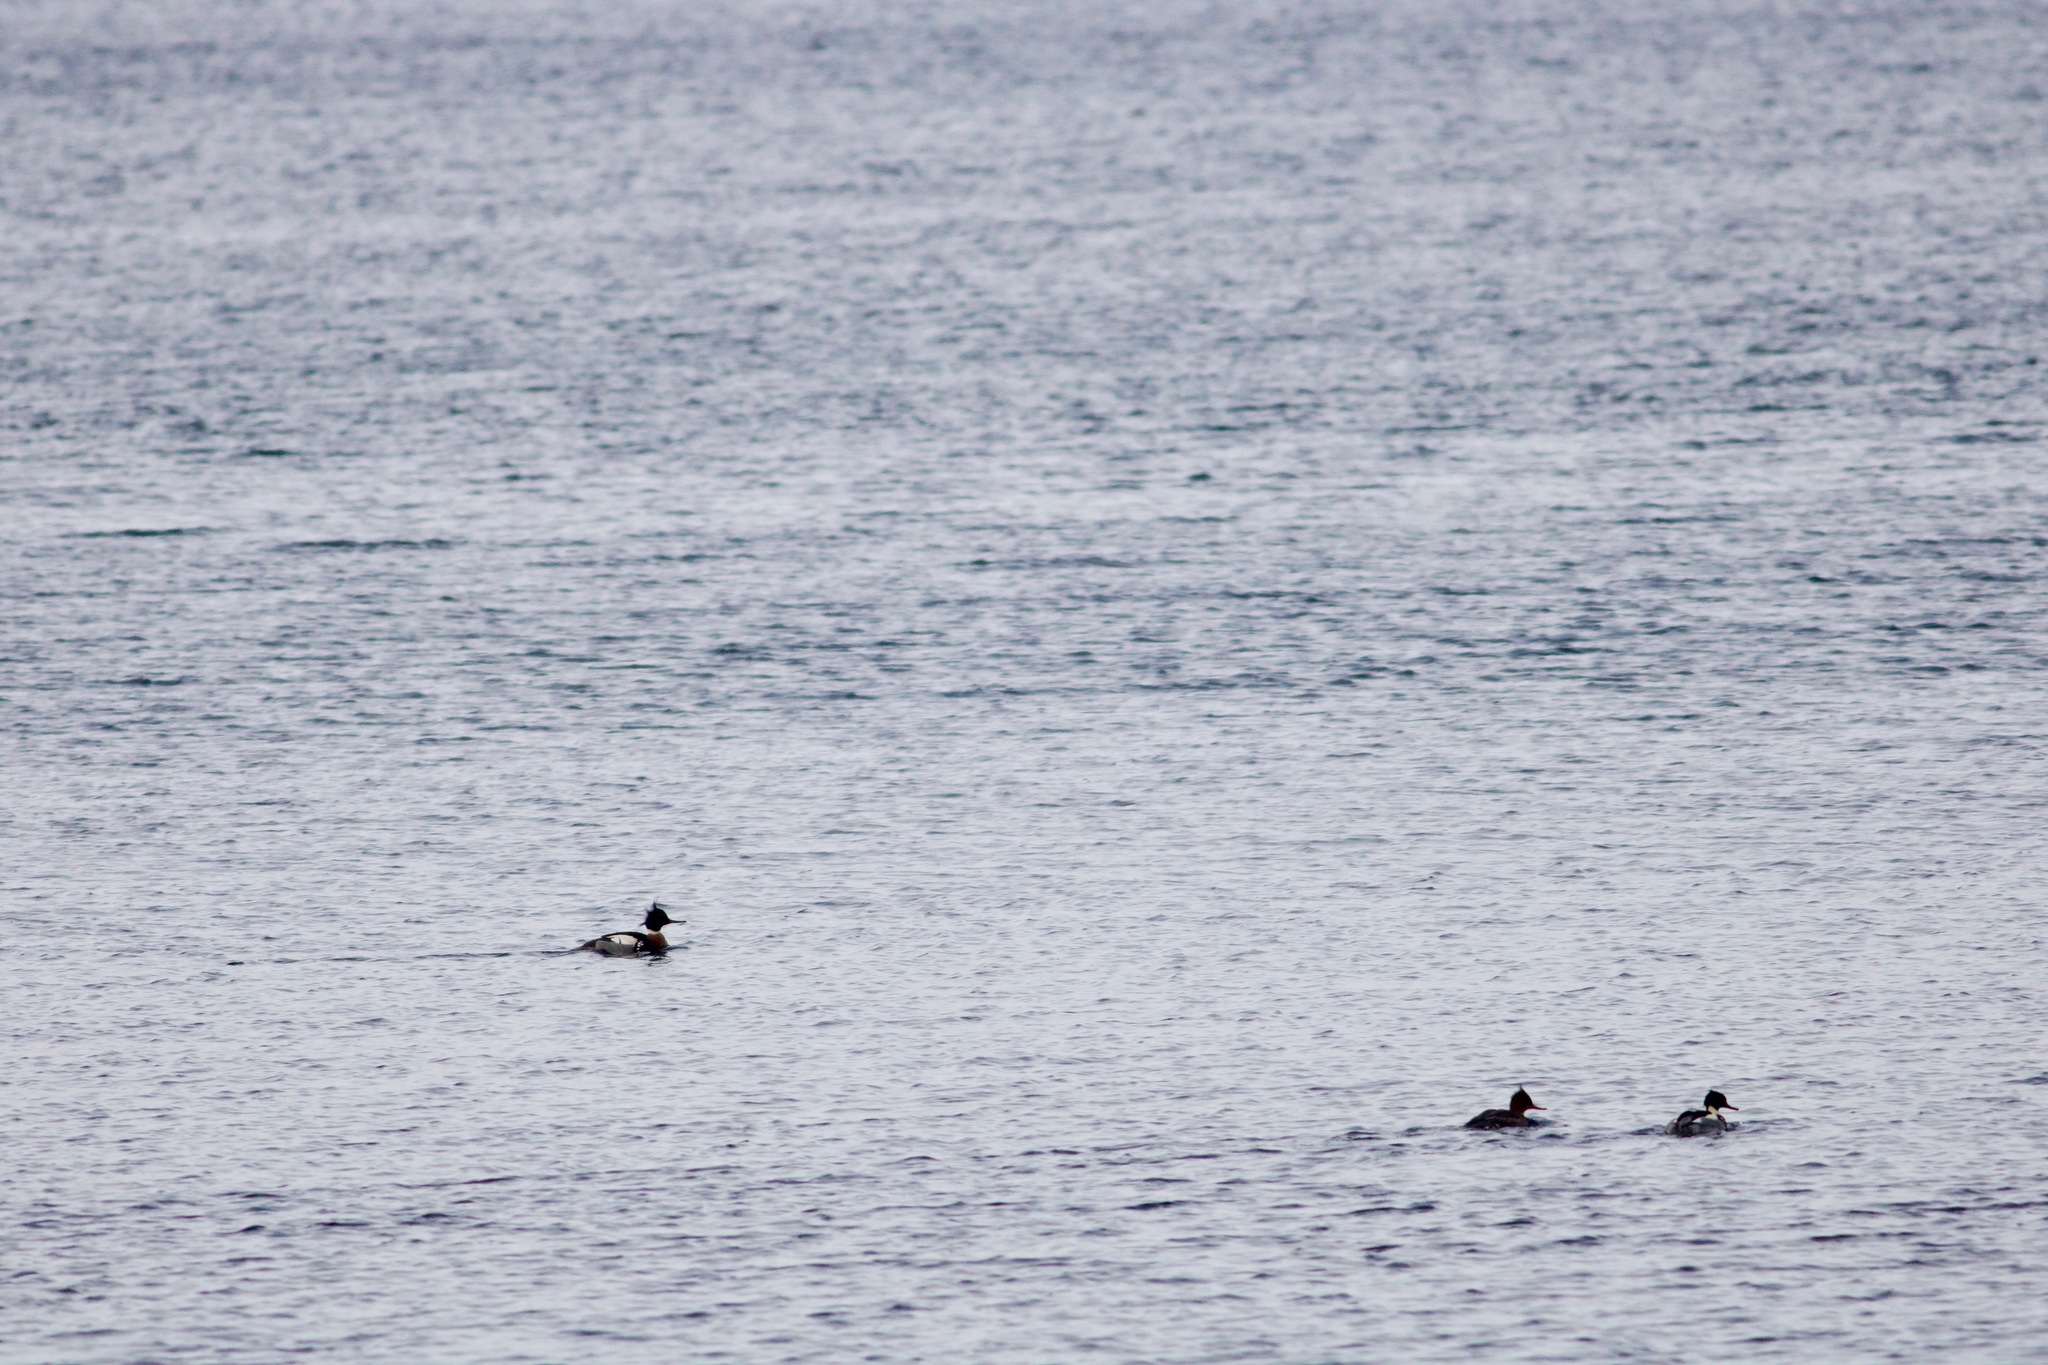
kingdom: Animalia
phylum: Chordata
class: Aves
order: Anseriformes
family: Anatidae
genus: Mergus
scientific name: Mergus serrator
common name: Red-breasted merganser
